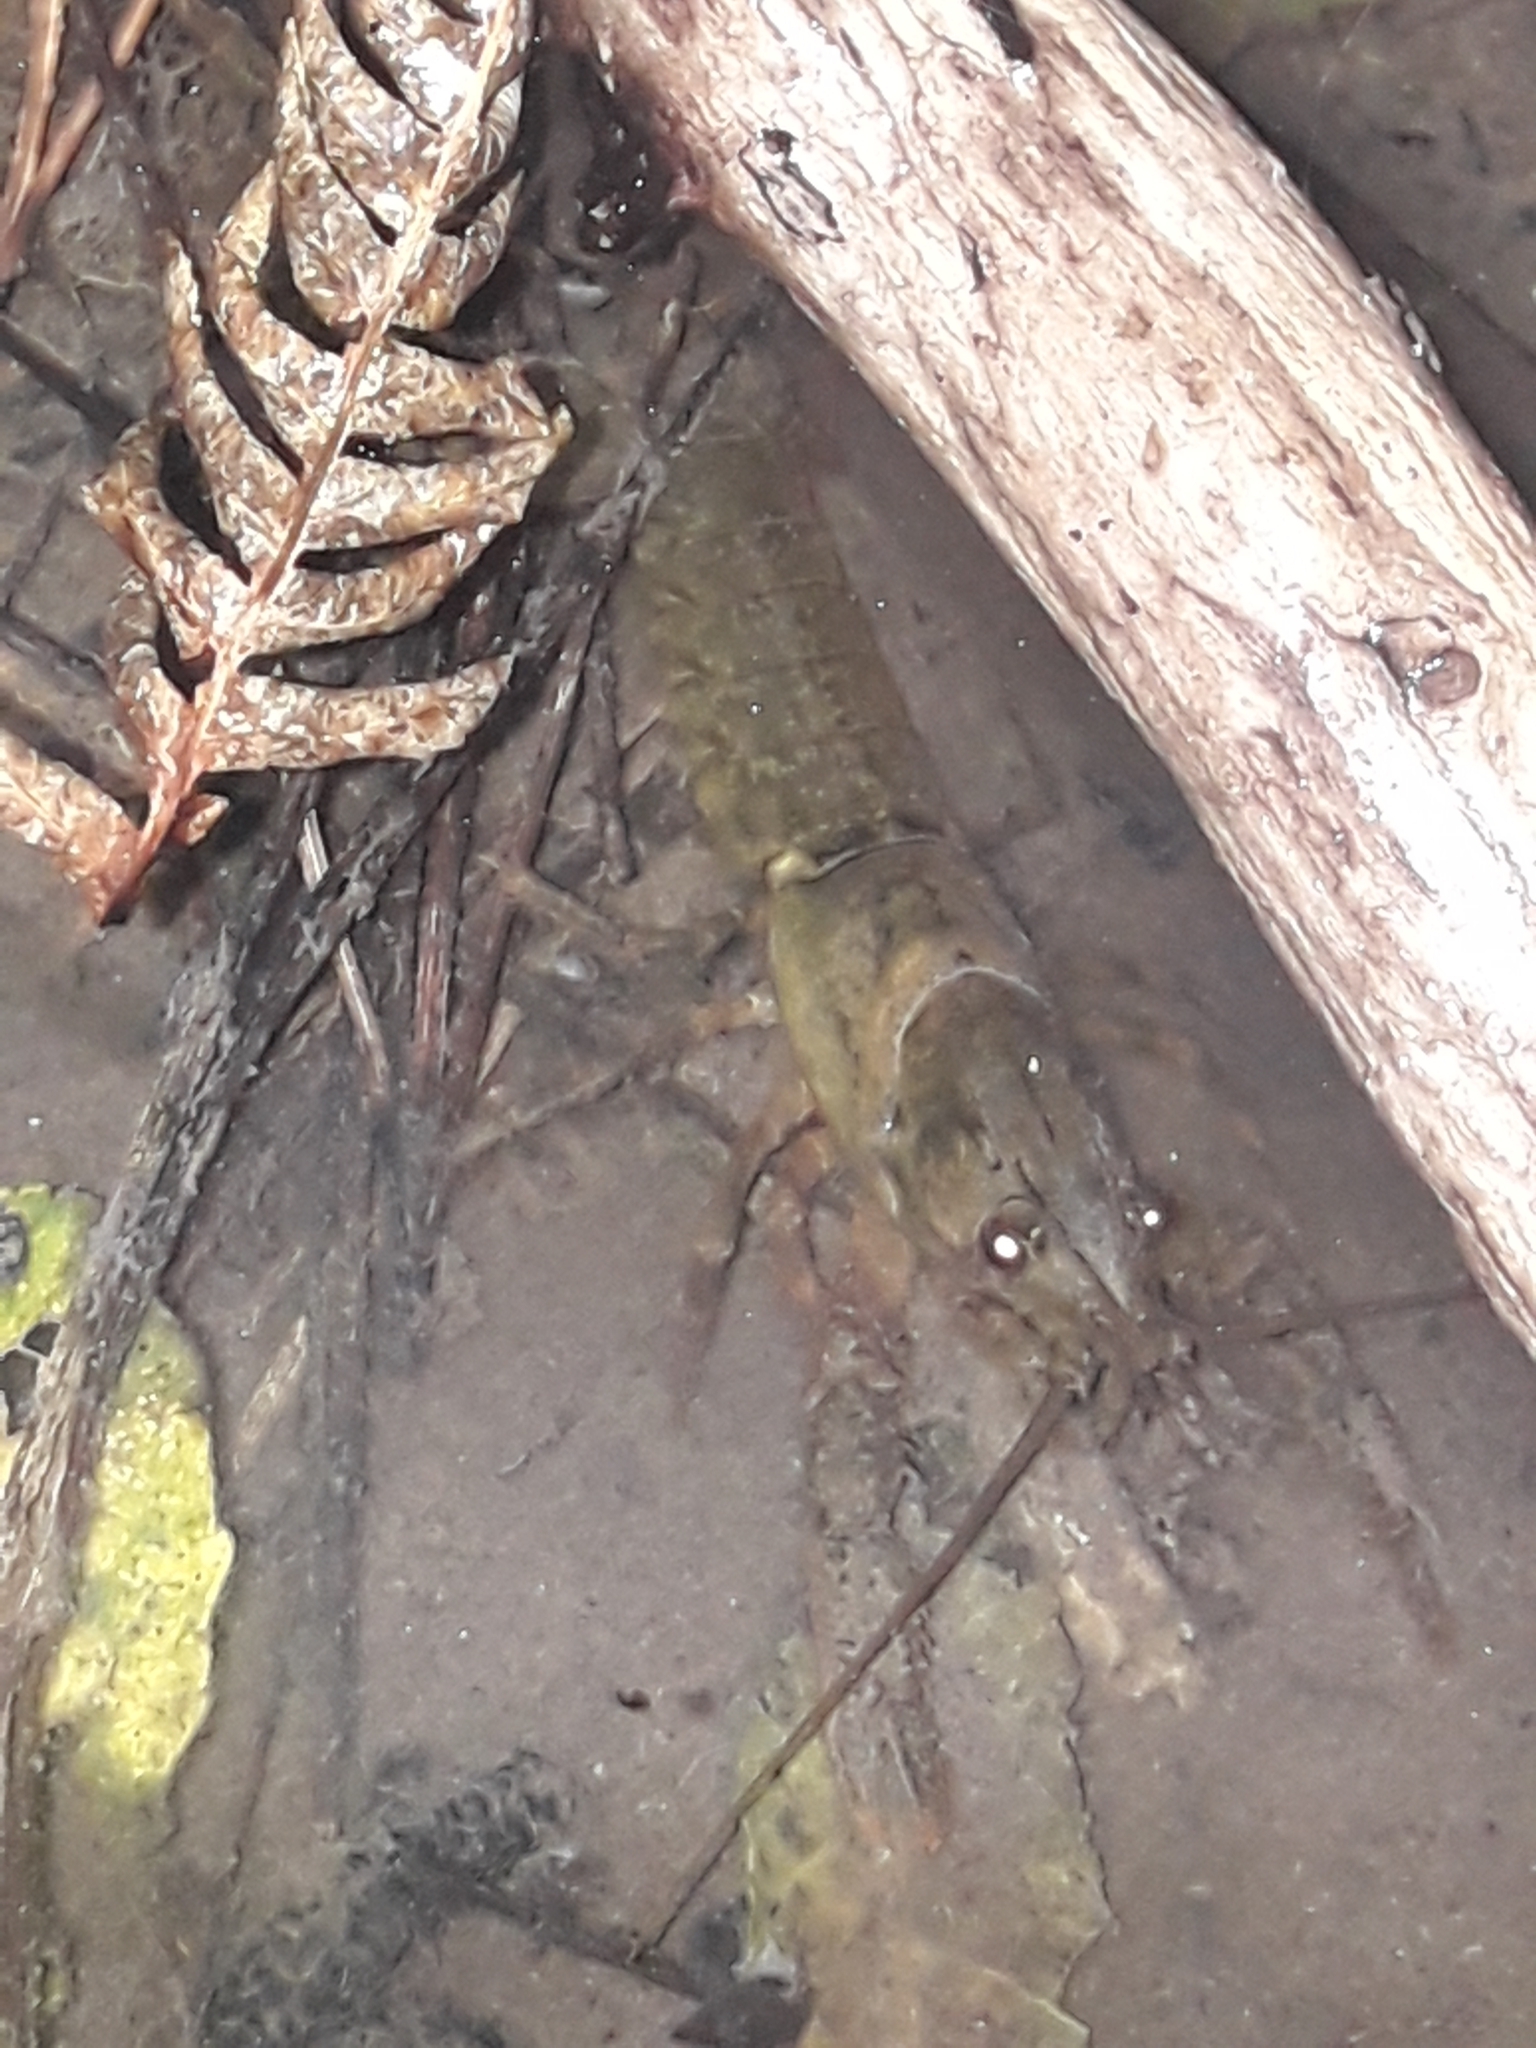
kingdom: Animalia
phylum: Arthropoda
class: Malacostraca
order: Decapoda
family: Parastacidae
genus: Paranephrops
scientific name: Paranephrops planifrons
